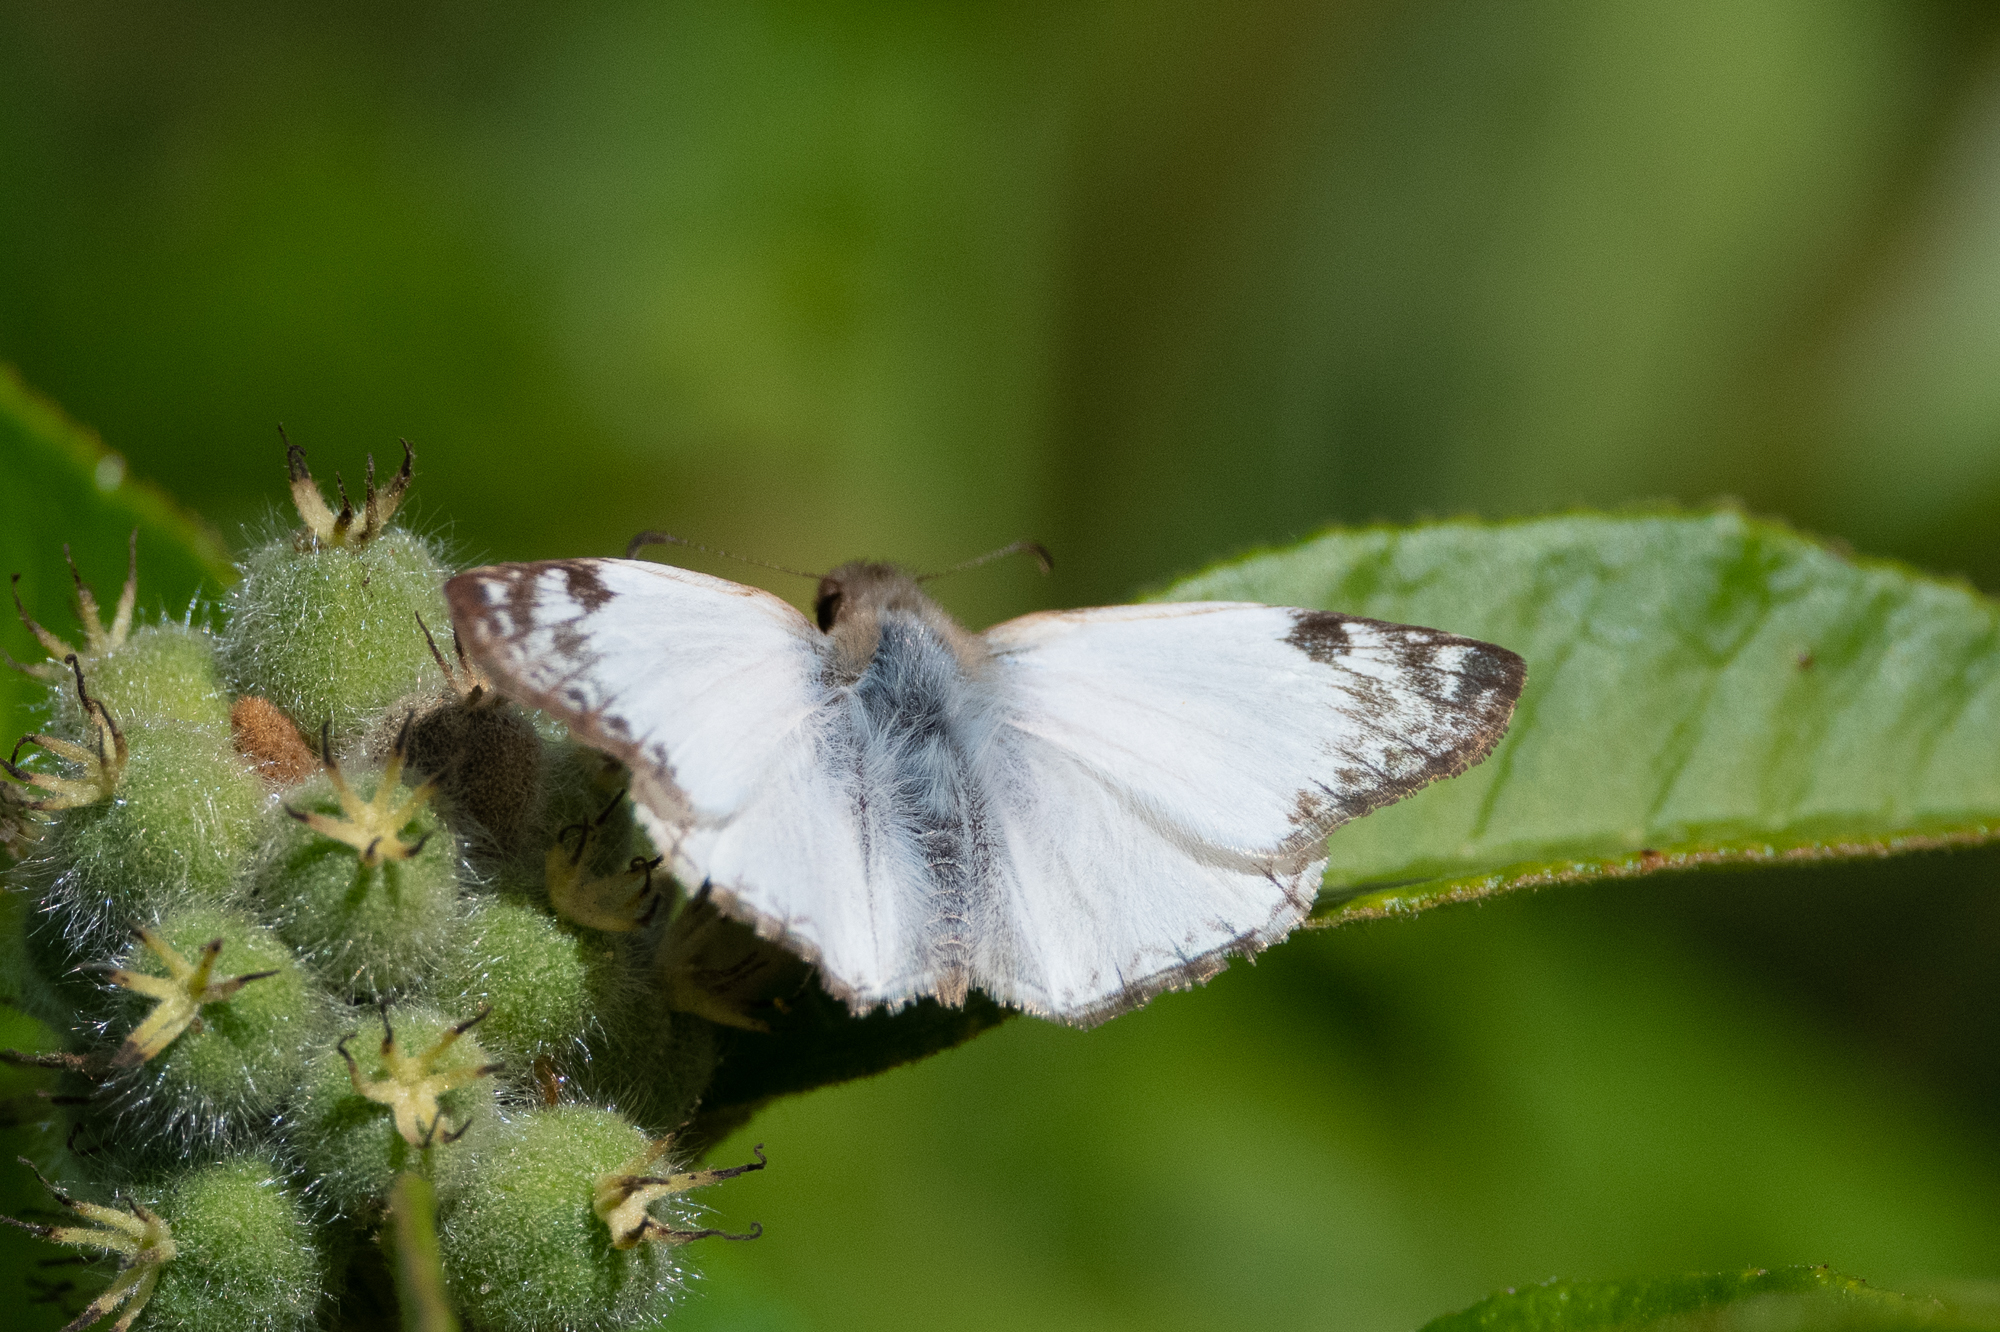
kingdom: Animalia
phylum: Arthropoda
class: Insecta
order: Lepidoptera
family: Hesperiidae
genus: Heliopetes
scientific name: Heliopetes laviana
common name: Laviana white-skipper
